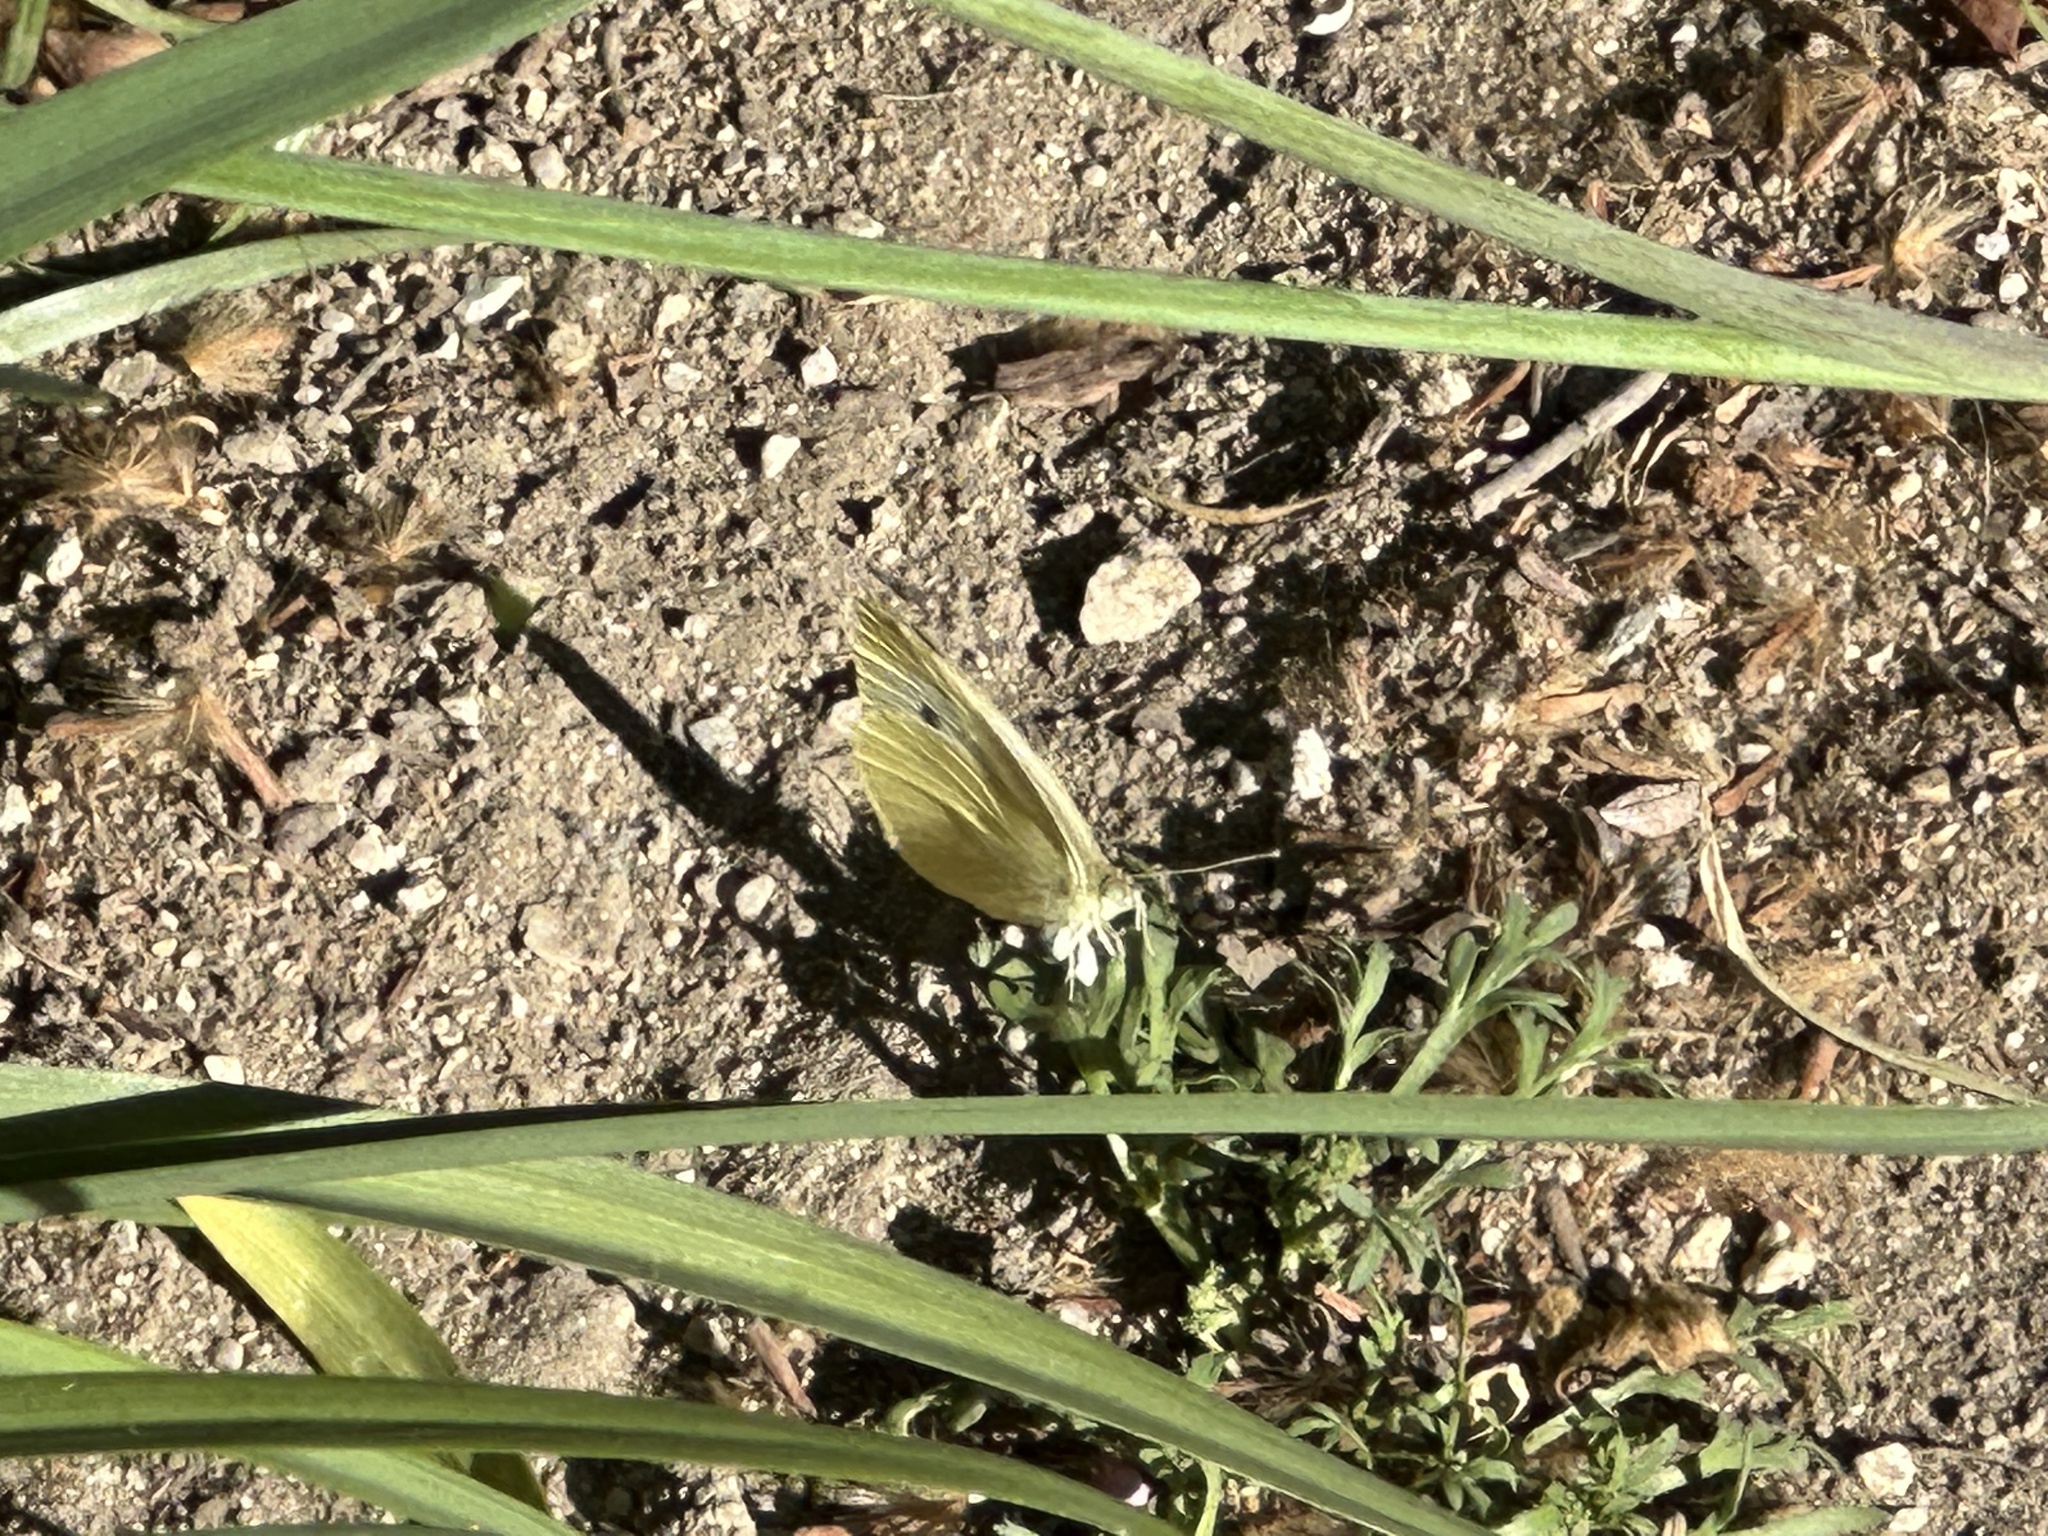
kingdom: Animalia
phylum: Arthropoda
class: Insecta
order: Lepidoptera
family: Pieridae
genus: Pieris
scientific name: Pieris rapae
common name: Small white
